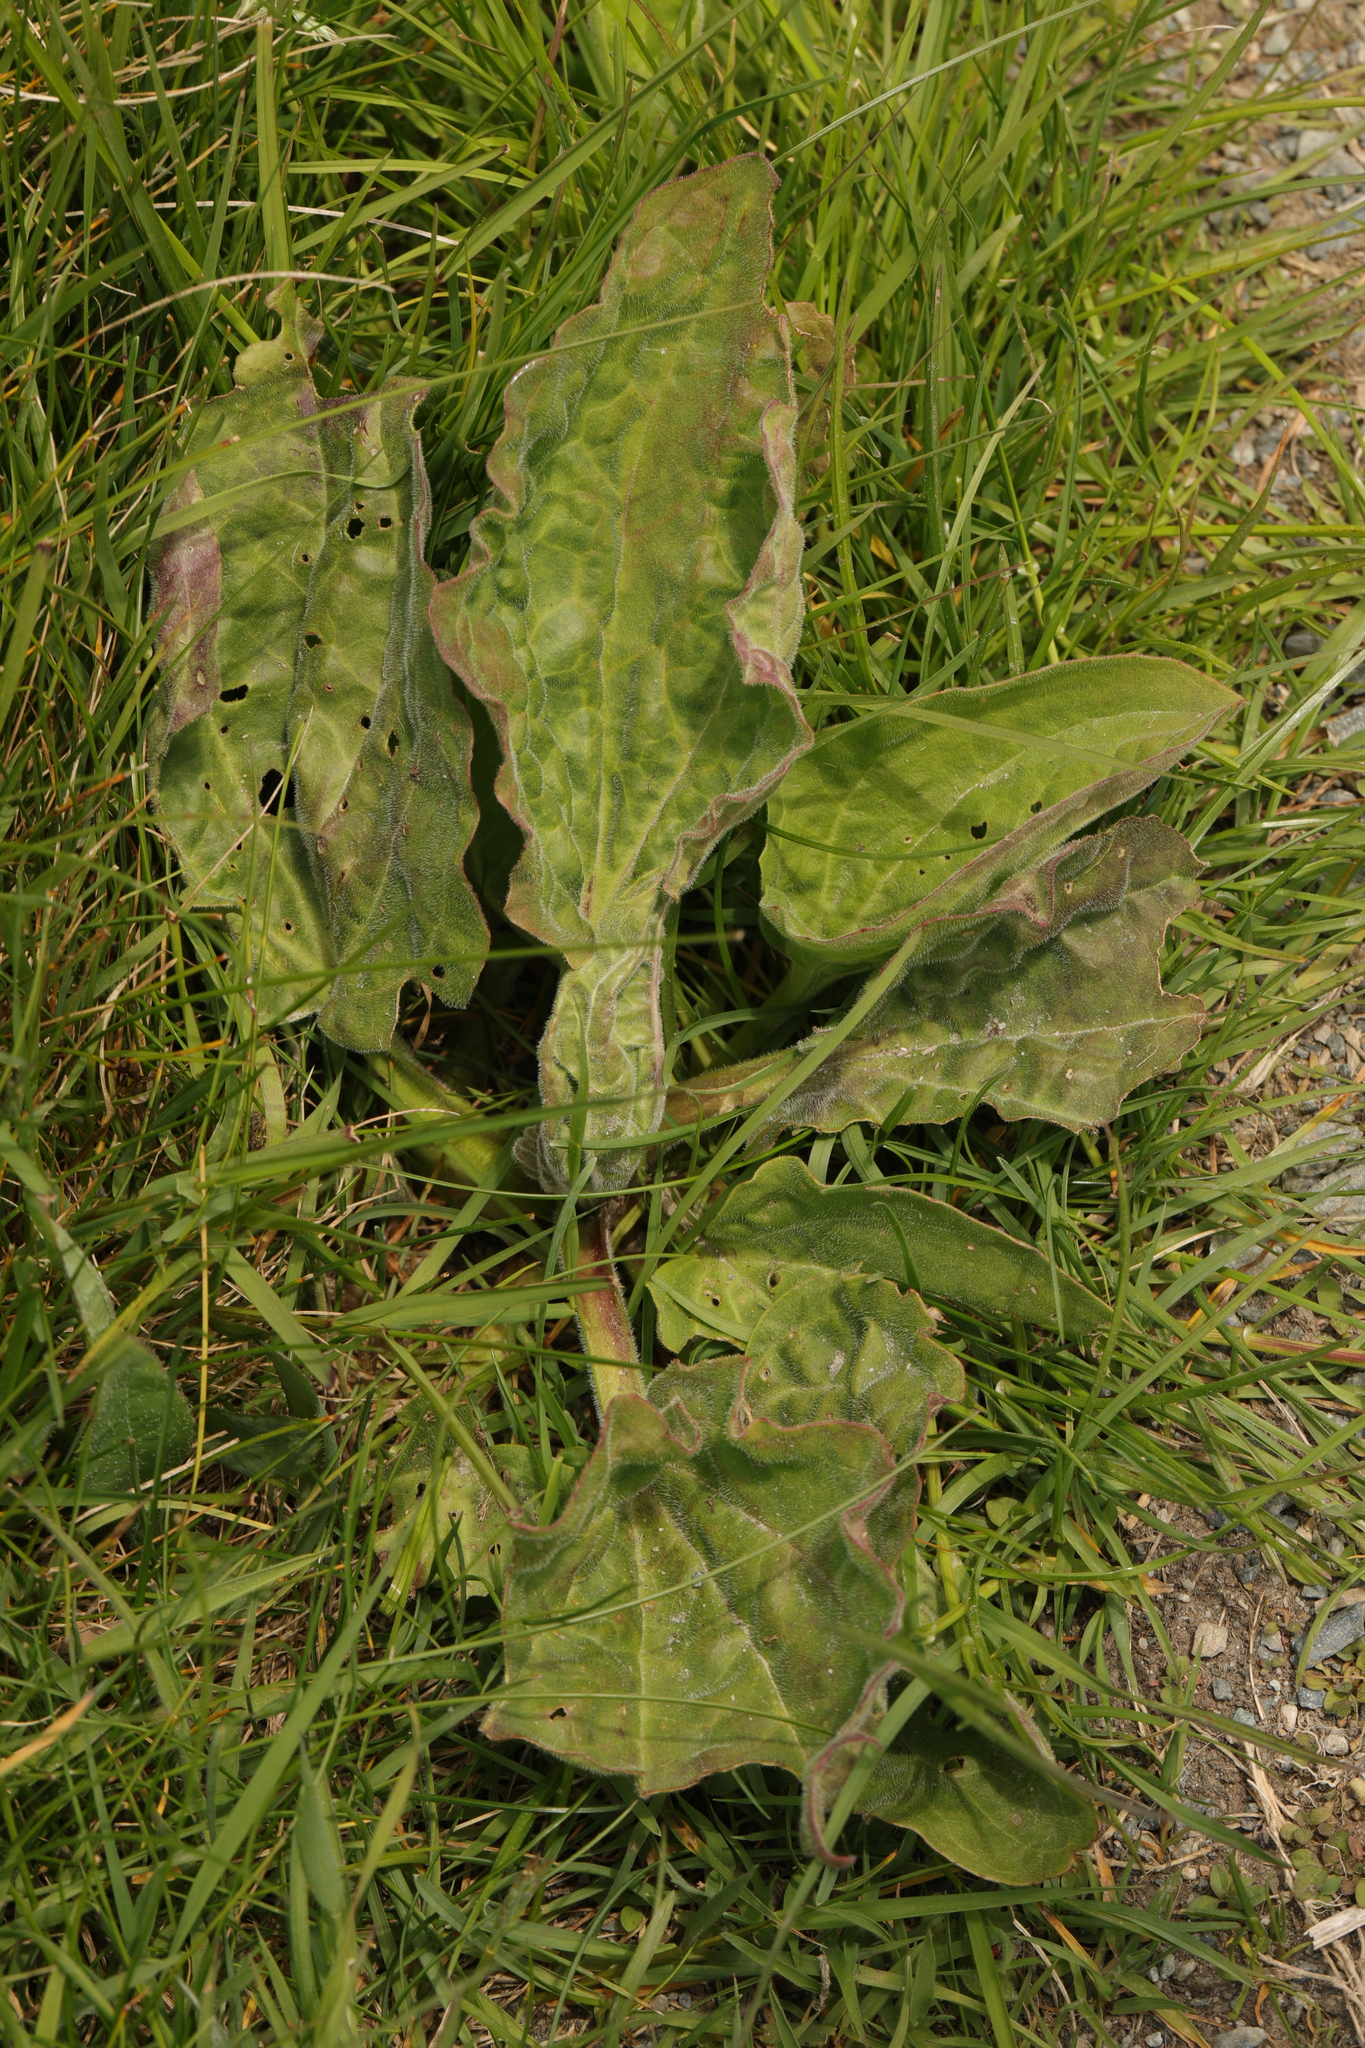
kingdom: Plantae
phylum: Tracheophyta
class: Magnoliopsida
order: Lamiales
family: Plantaginaceae
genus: Plantago
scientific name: Plantago major
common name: Common plantain
